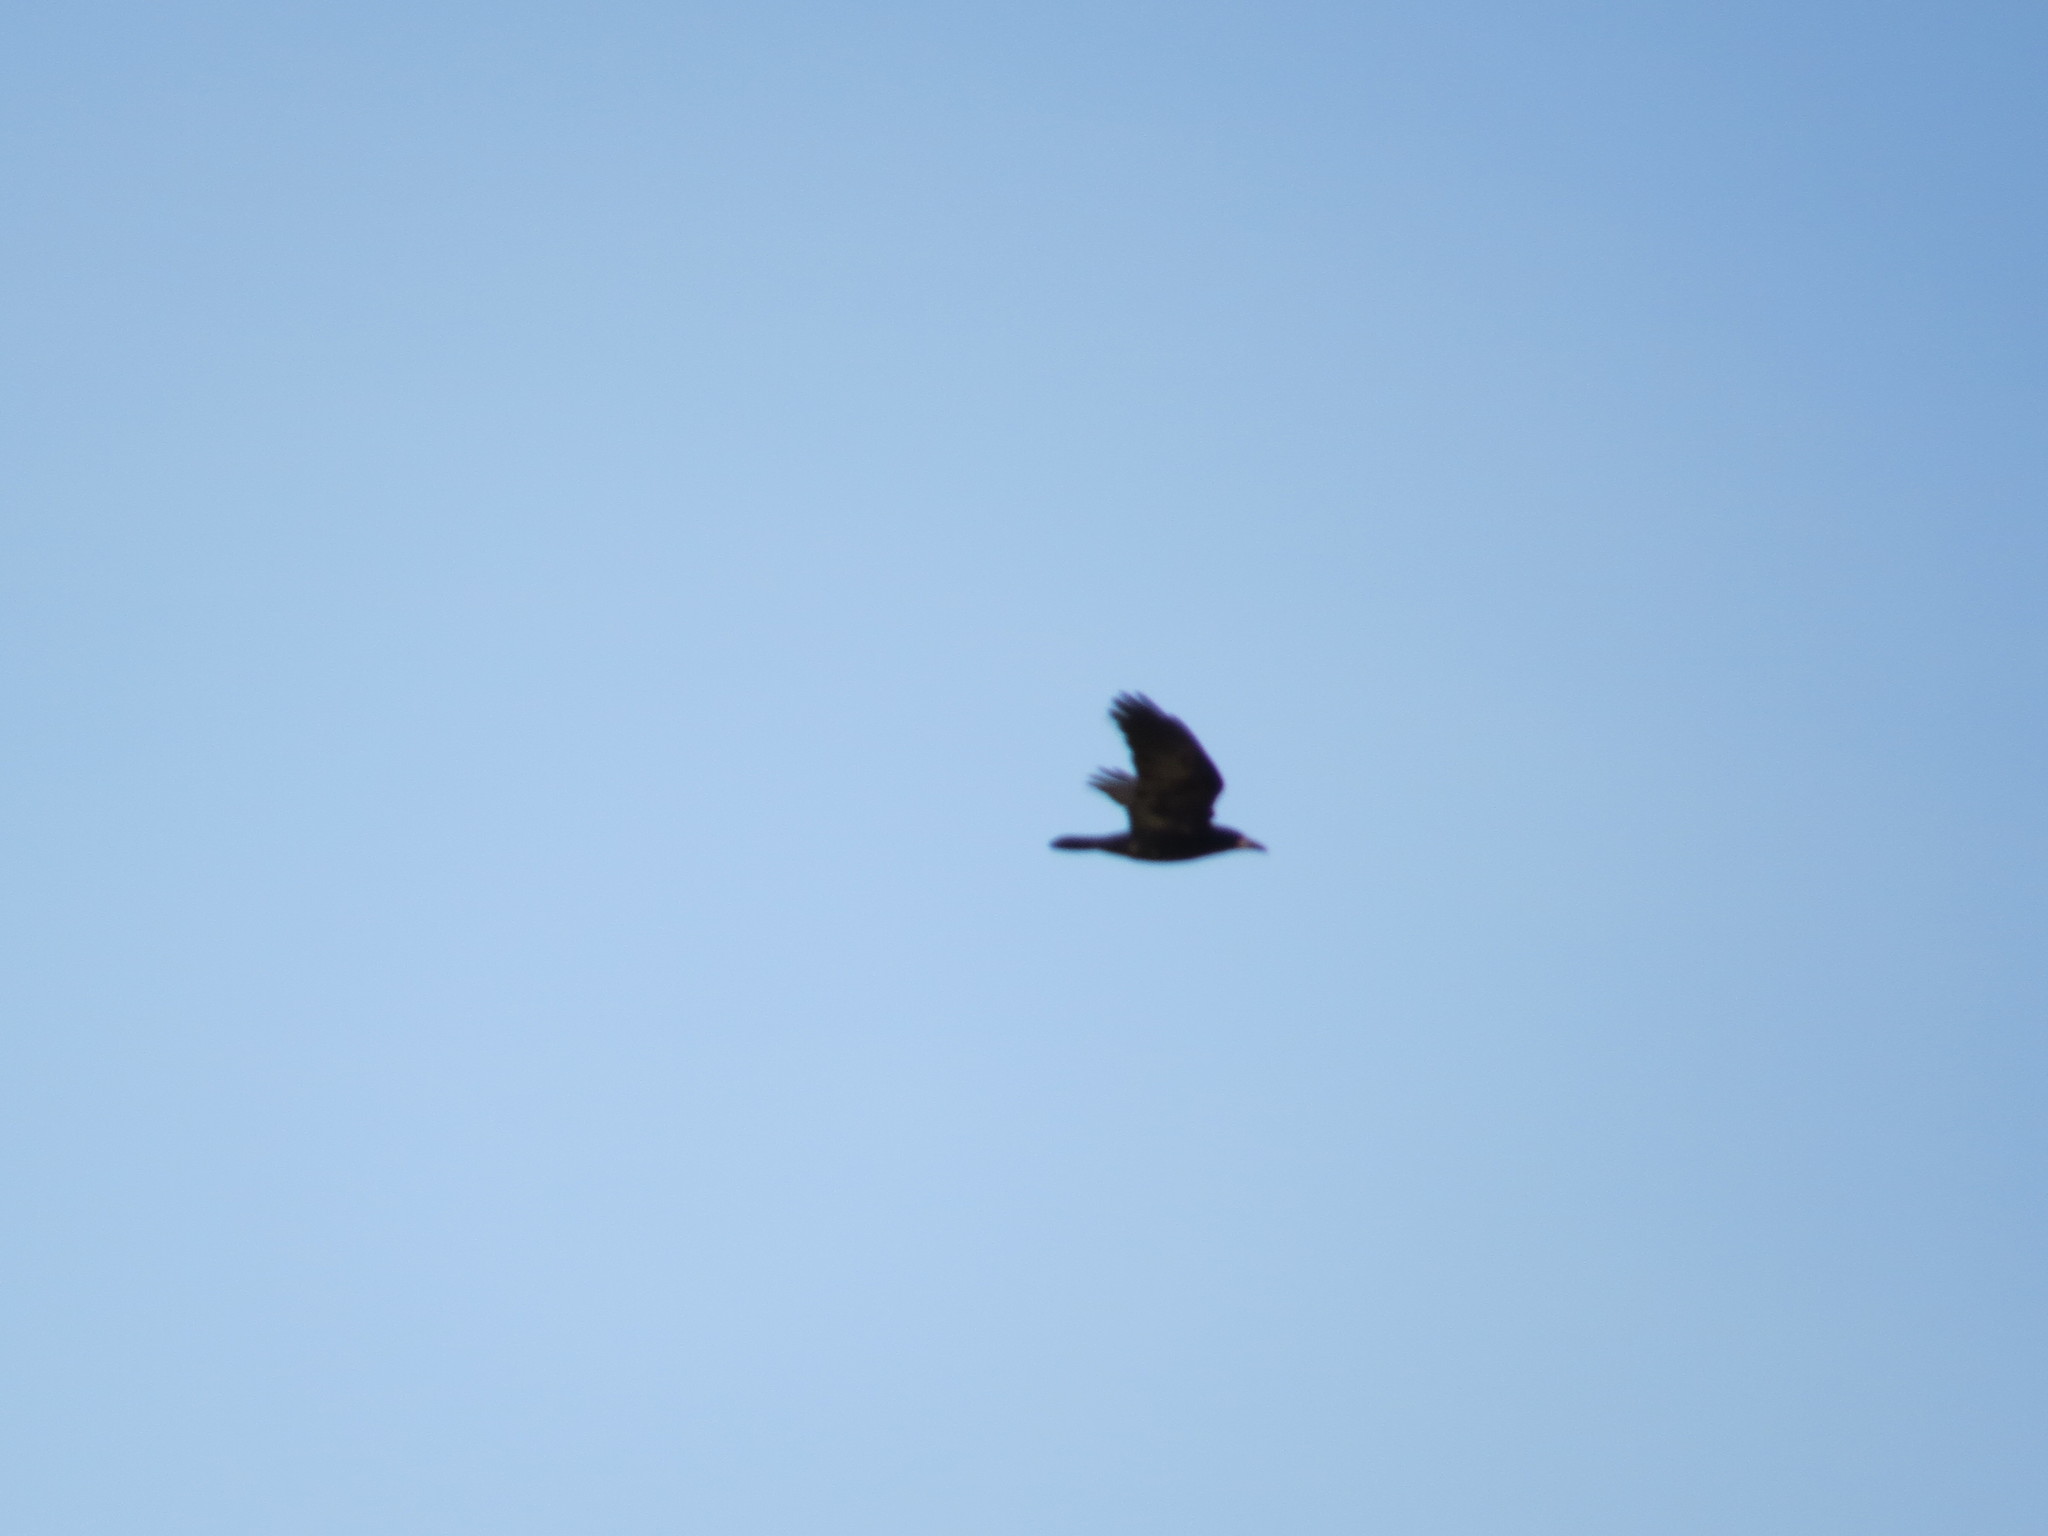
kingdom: Animalia
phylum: Chordata
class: Aves
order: Passeriformes
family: Corvidae
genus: Corvus
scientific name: Corvus frugilegus
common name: Rook
